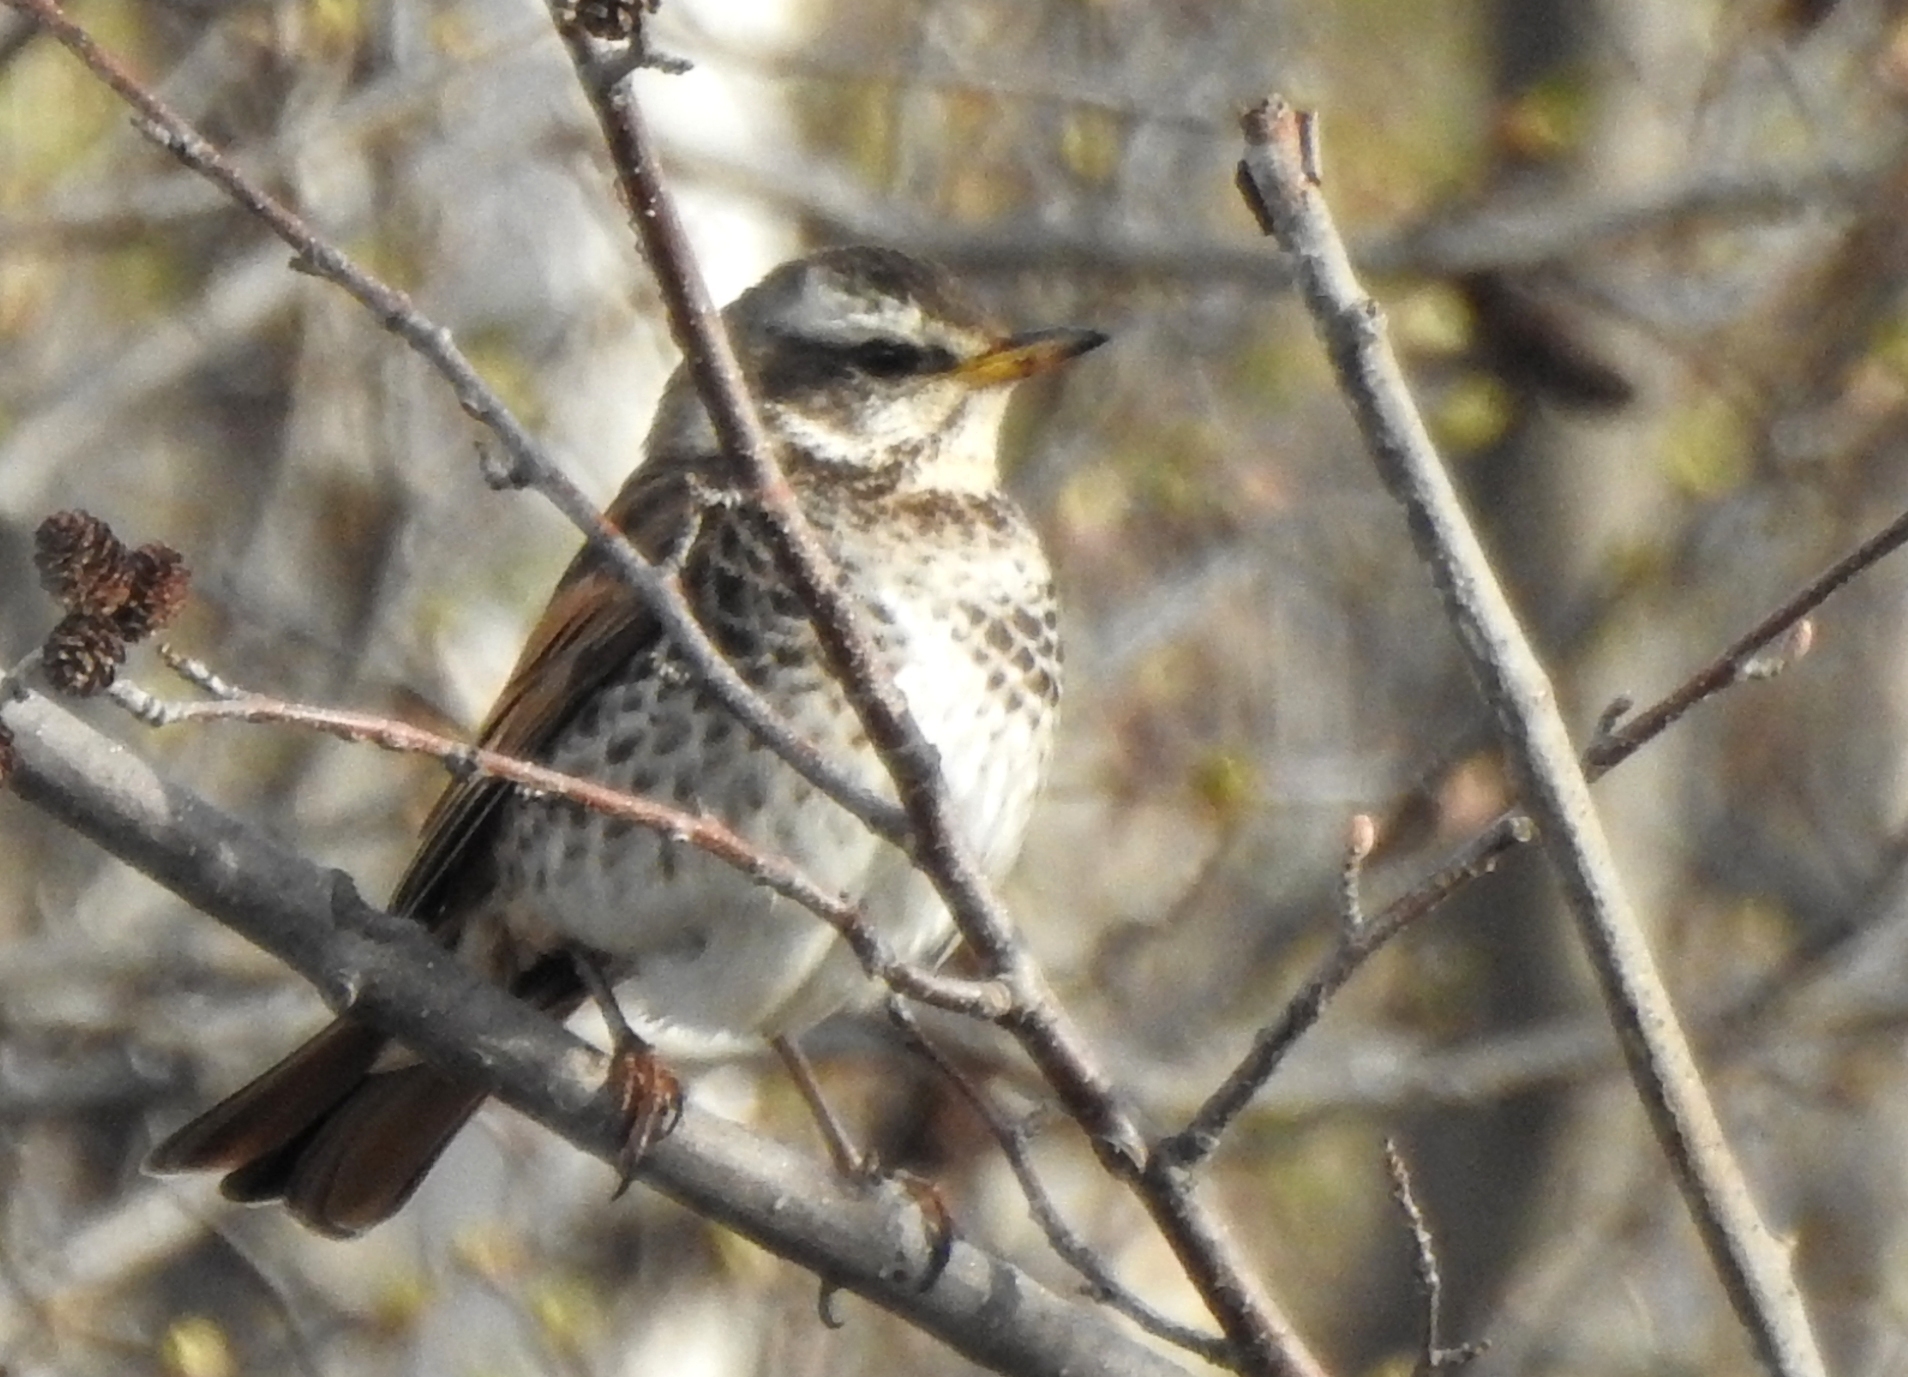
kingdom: Animalia
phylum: Chordata
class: Aves
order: Passeriformes
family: Turdidae
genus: Turdus
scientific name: Turdus eunomus
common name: Dusky thrush
